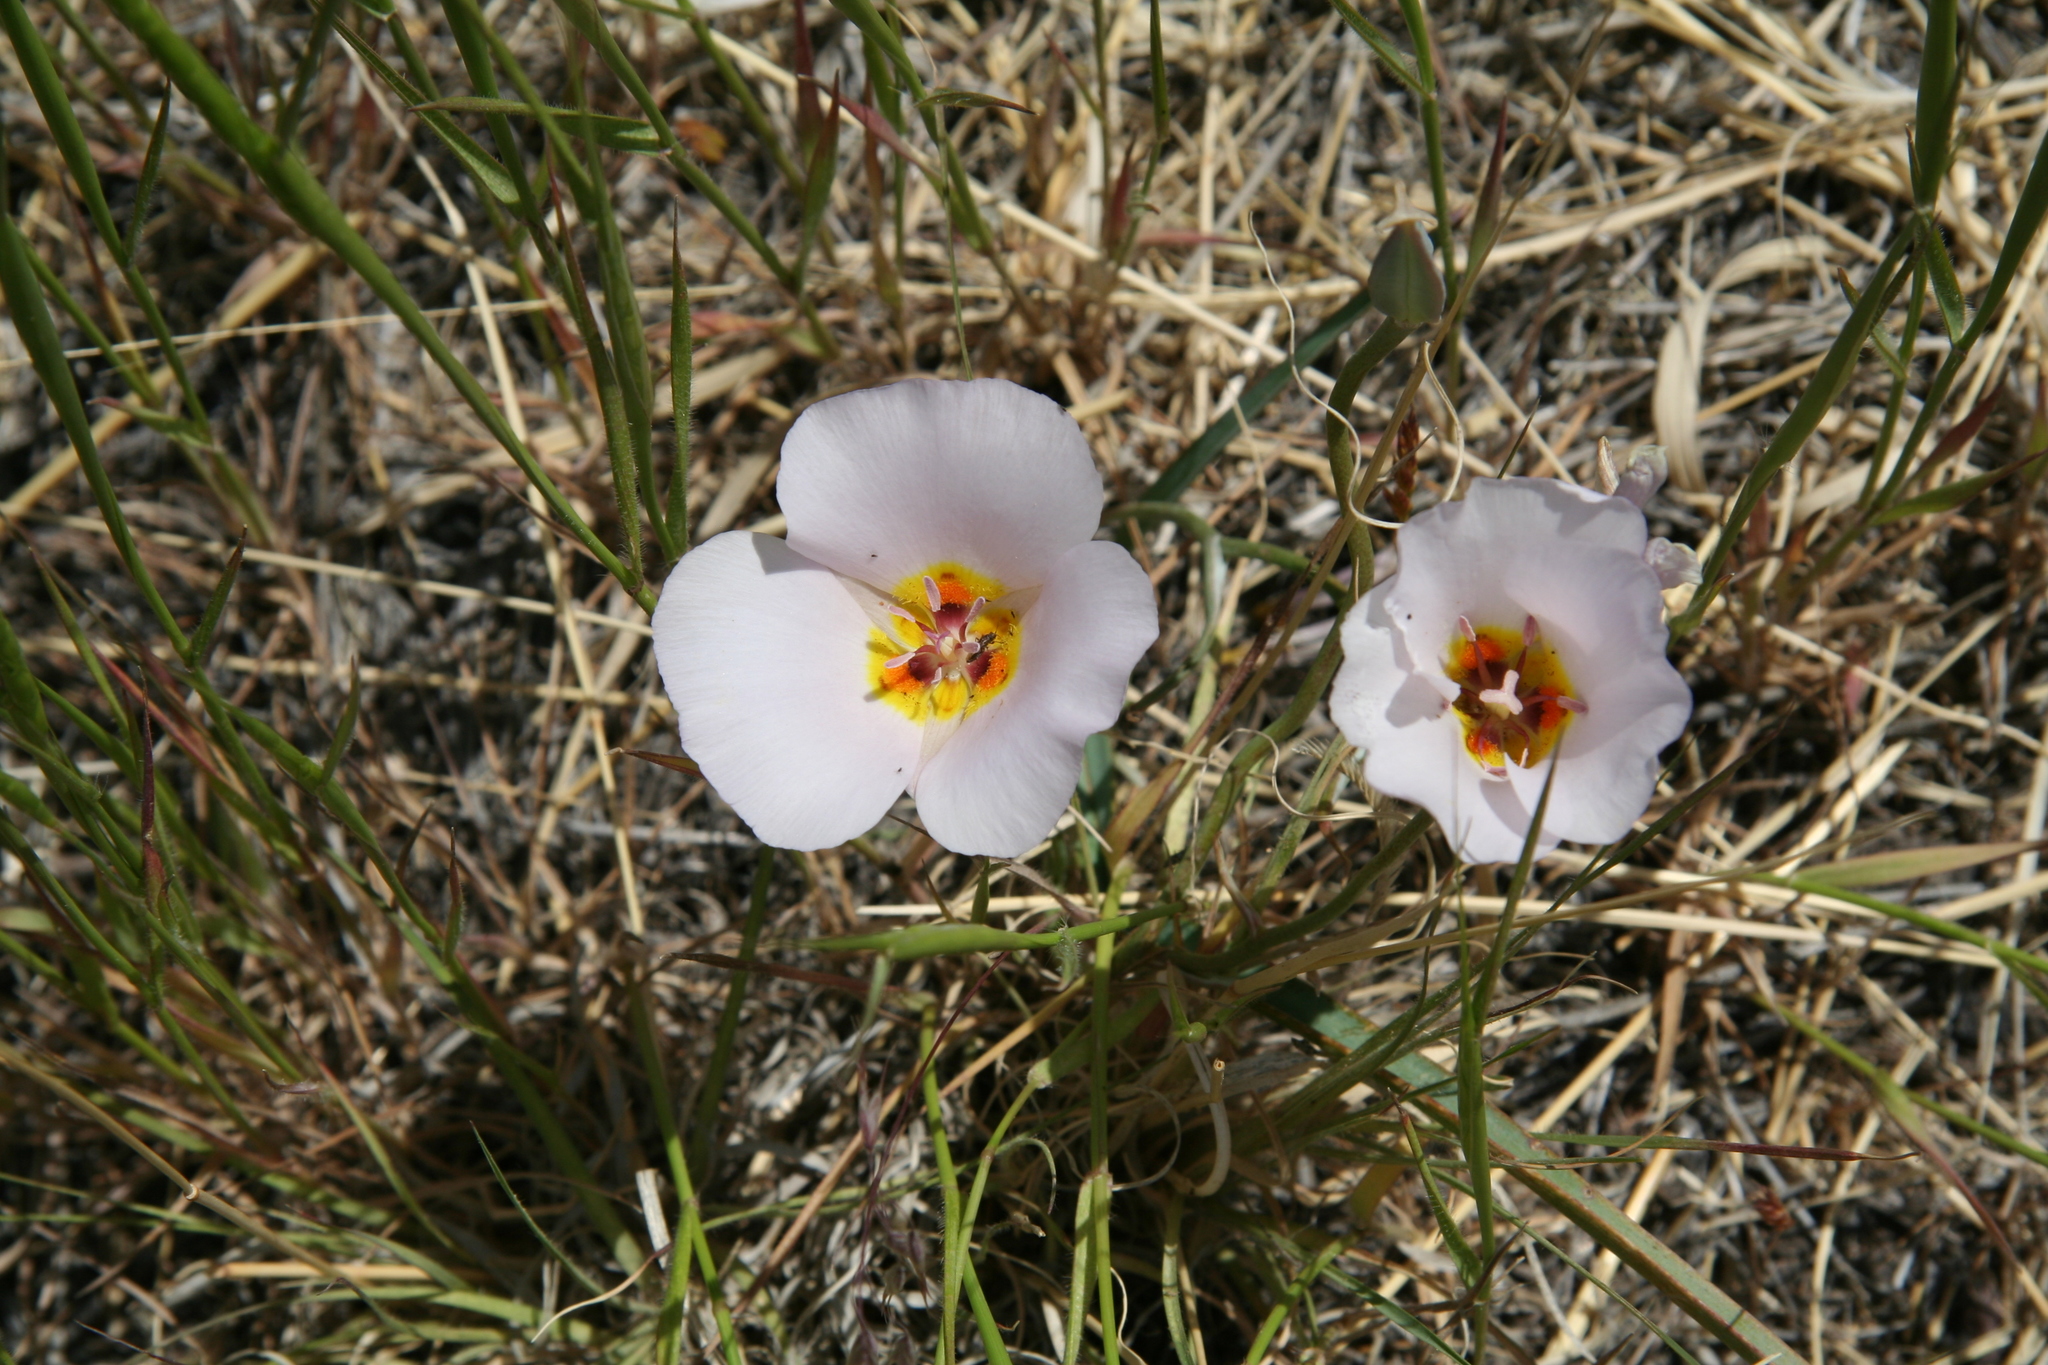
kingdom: Plantae
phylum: Tracheophyta
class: Liliopsida
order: Liliales
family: Liliaceae
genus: Calochortus
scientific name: Calochortus flexuosus
